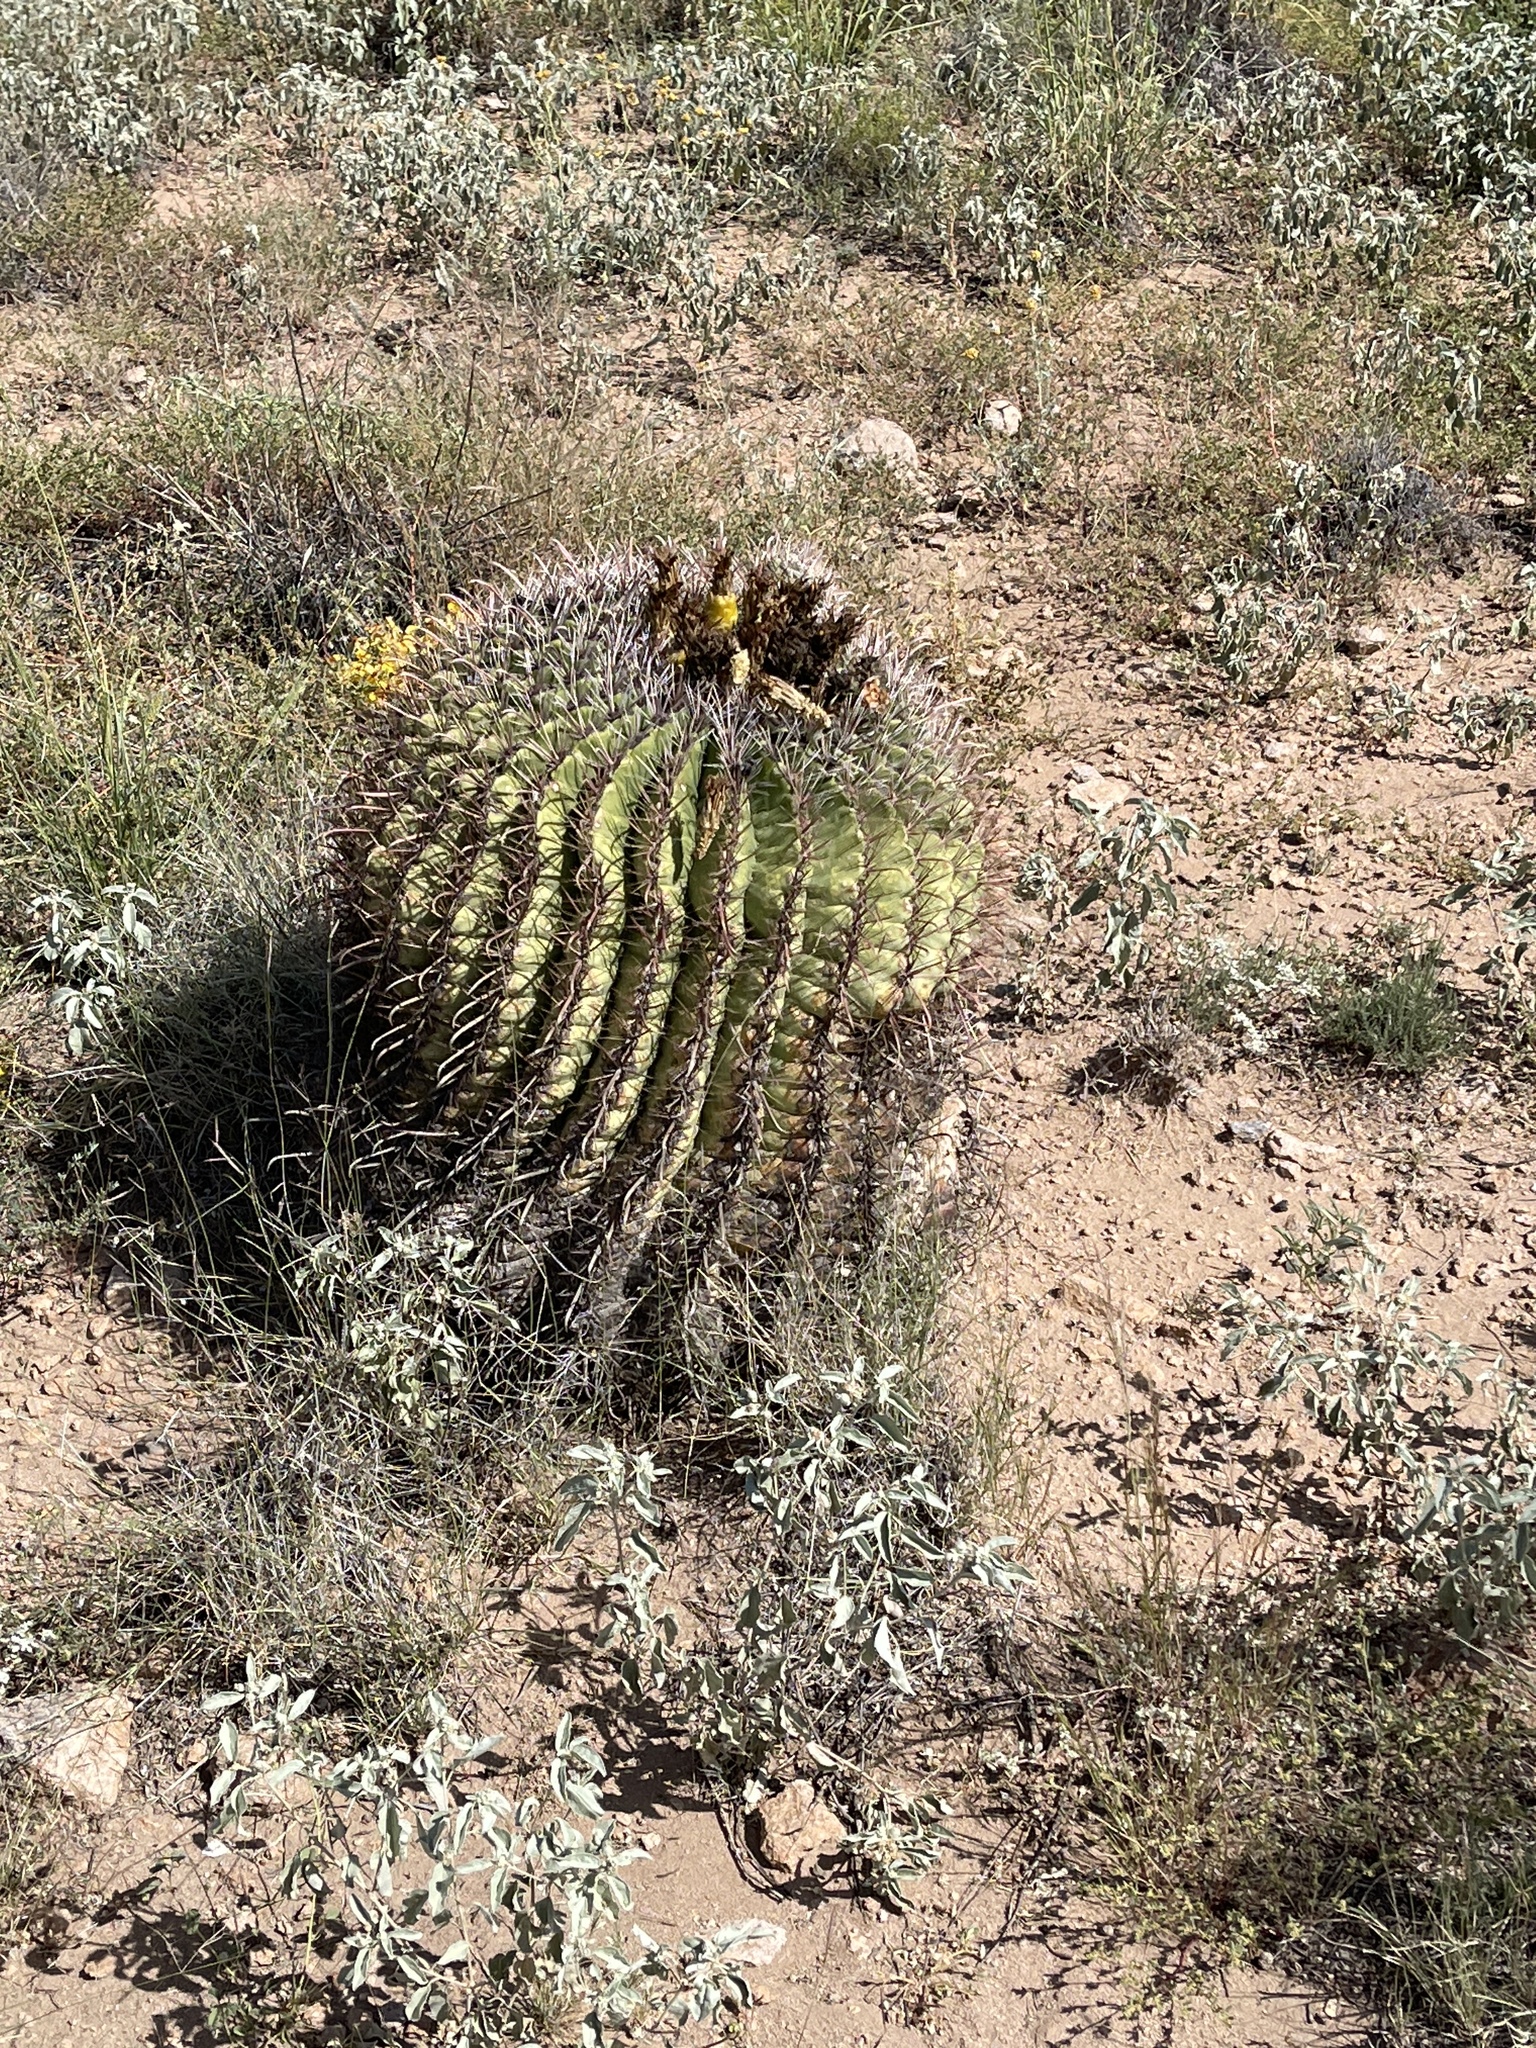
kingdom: Plantae
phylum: Tracheophyta
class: Magnoliopsida
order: Caryophyllales
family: Cactaceae
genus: Ferocactus
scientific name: Ferocactus wislizeni
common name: Candy barrel cactus
